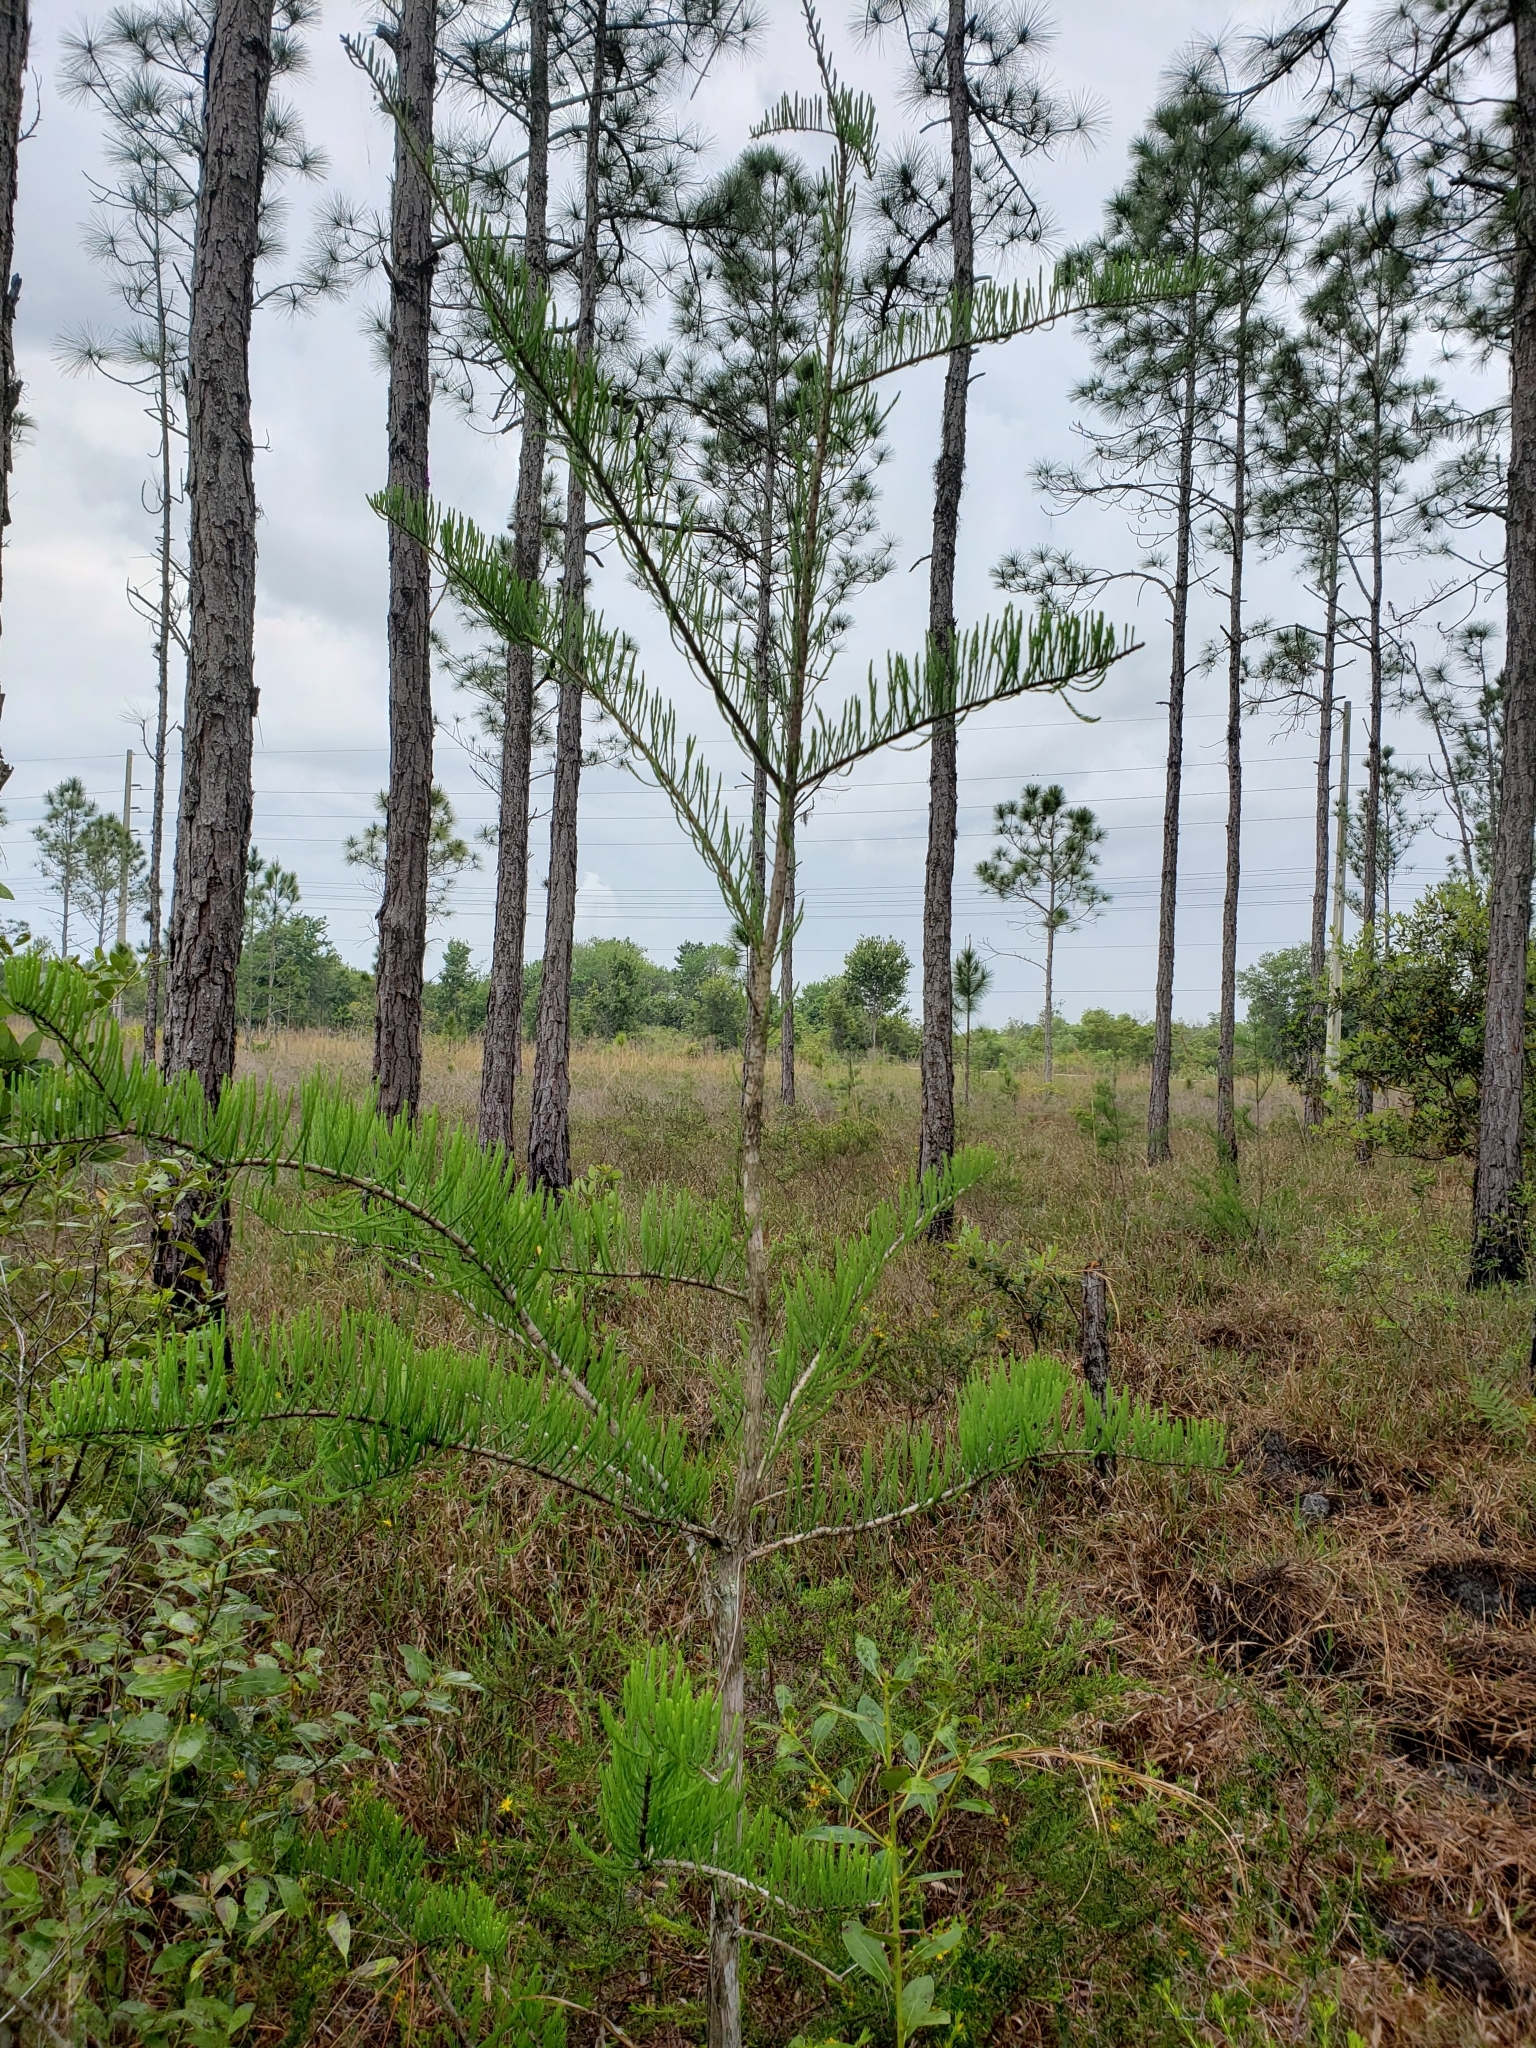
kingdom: Plantae
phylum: Tracheophyta
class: Pinopsida
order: Pinales
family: Cupressaceae
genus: Taxodium
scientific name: Taxodium distichum
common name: Bald cypress
